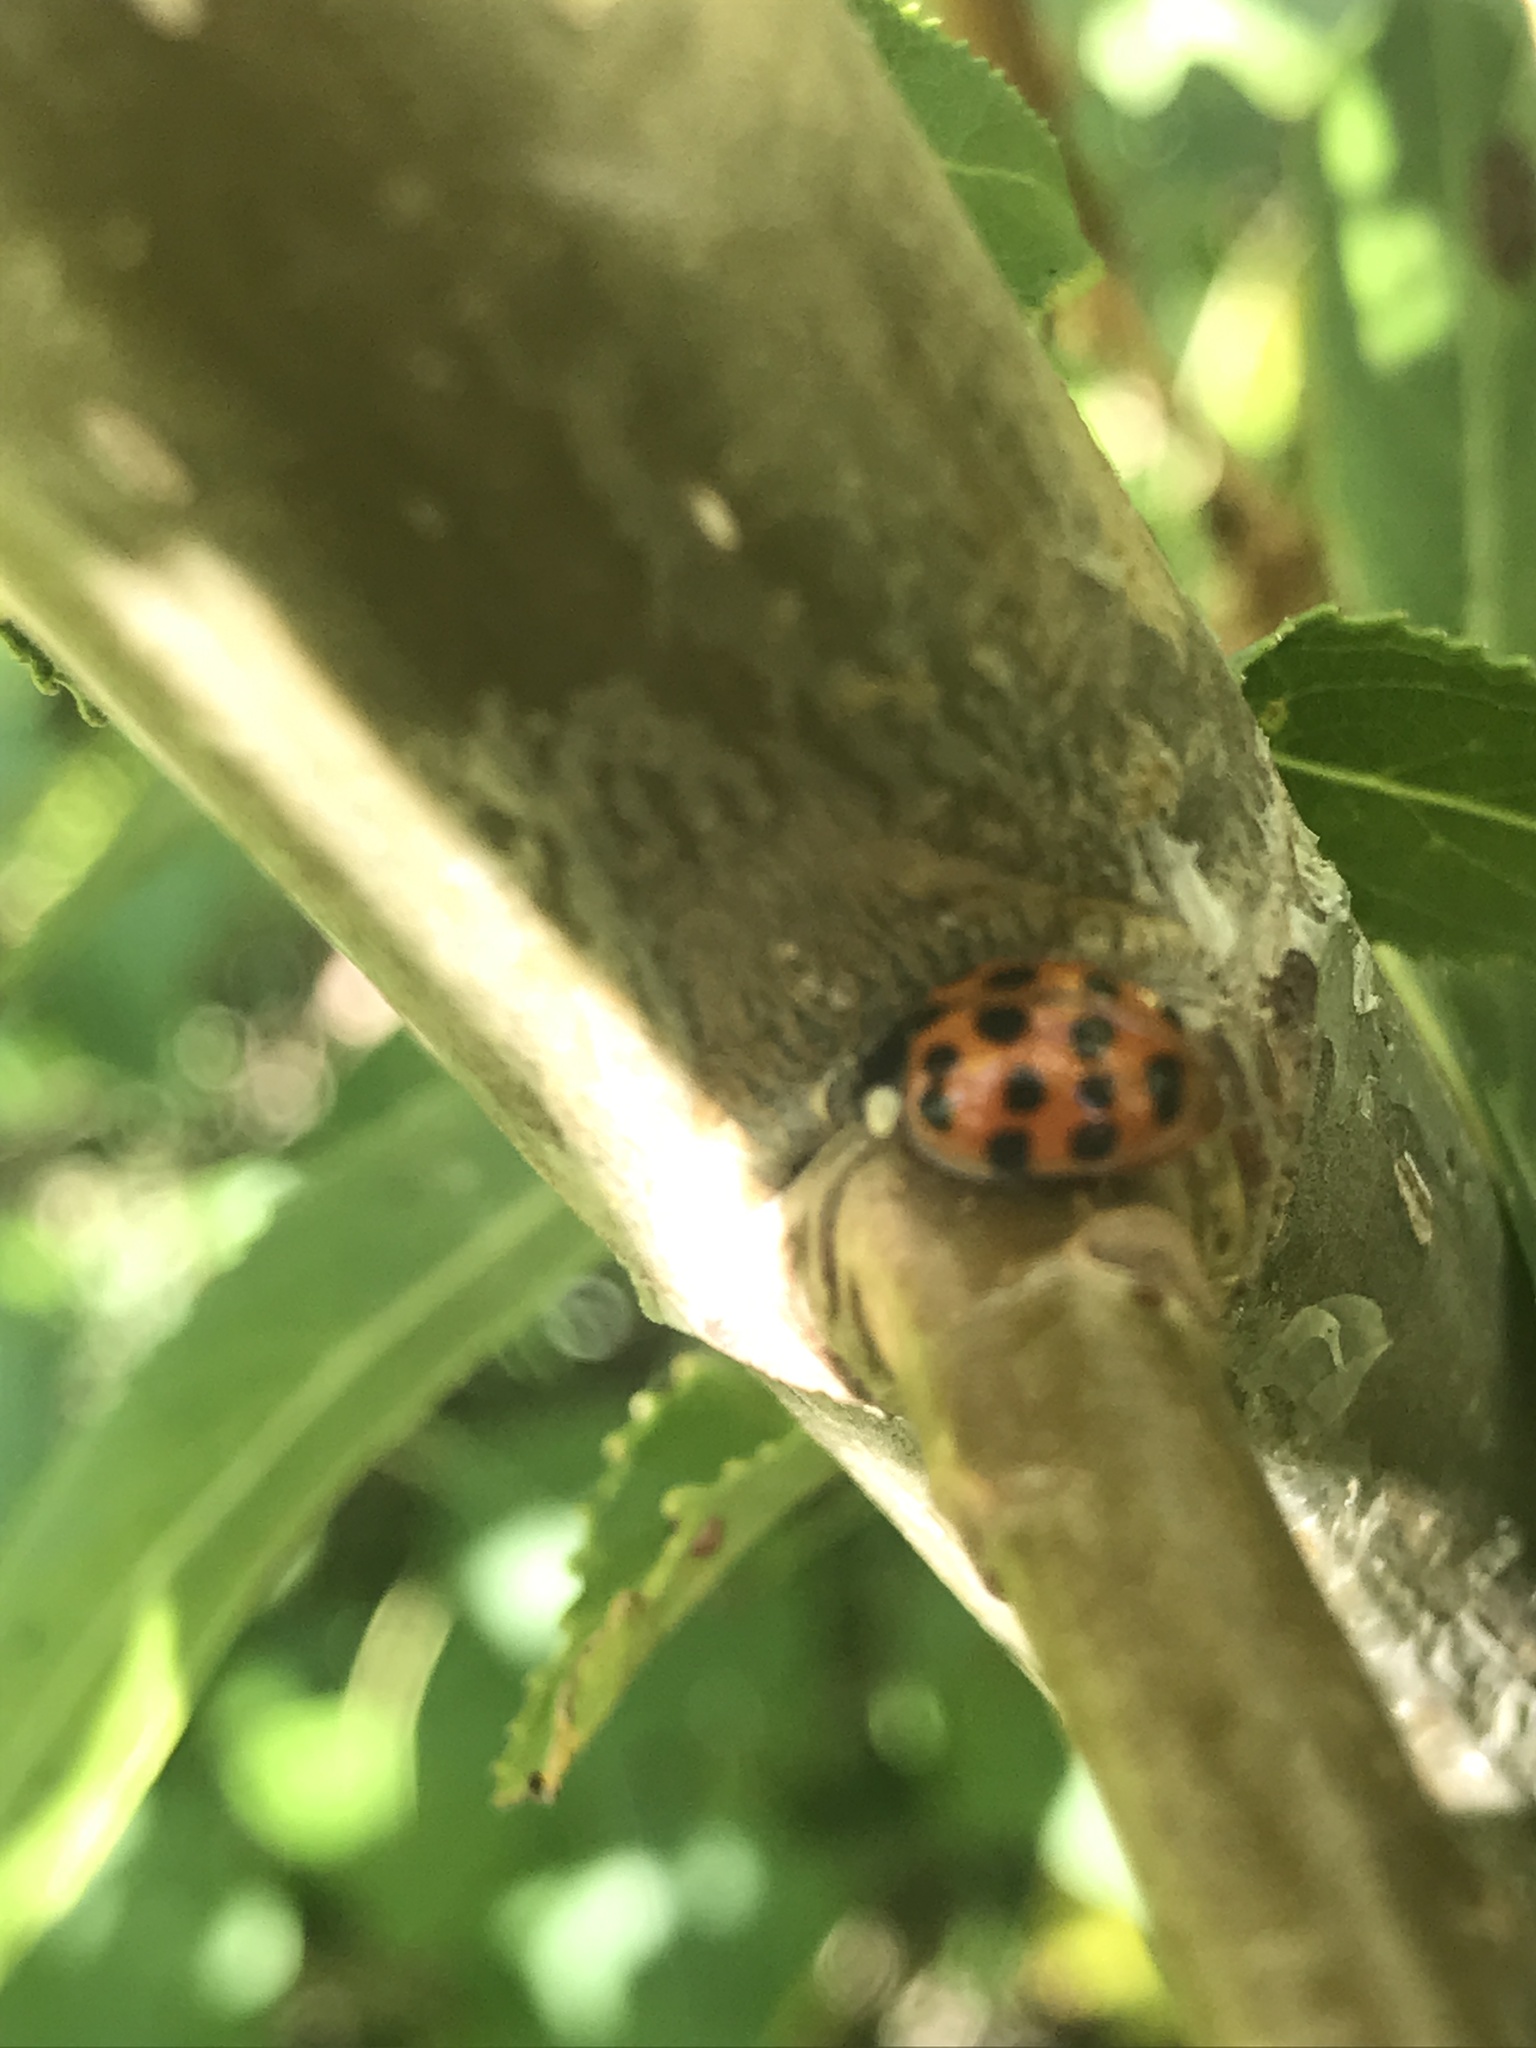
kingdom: Animalia
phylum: Arthropoda
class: Insecta
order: Coleoptera
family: Coccinellidae
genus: Harmonia
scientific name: Harmonia axyridis
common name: Harlequin ladybird
